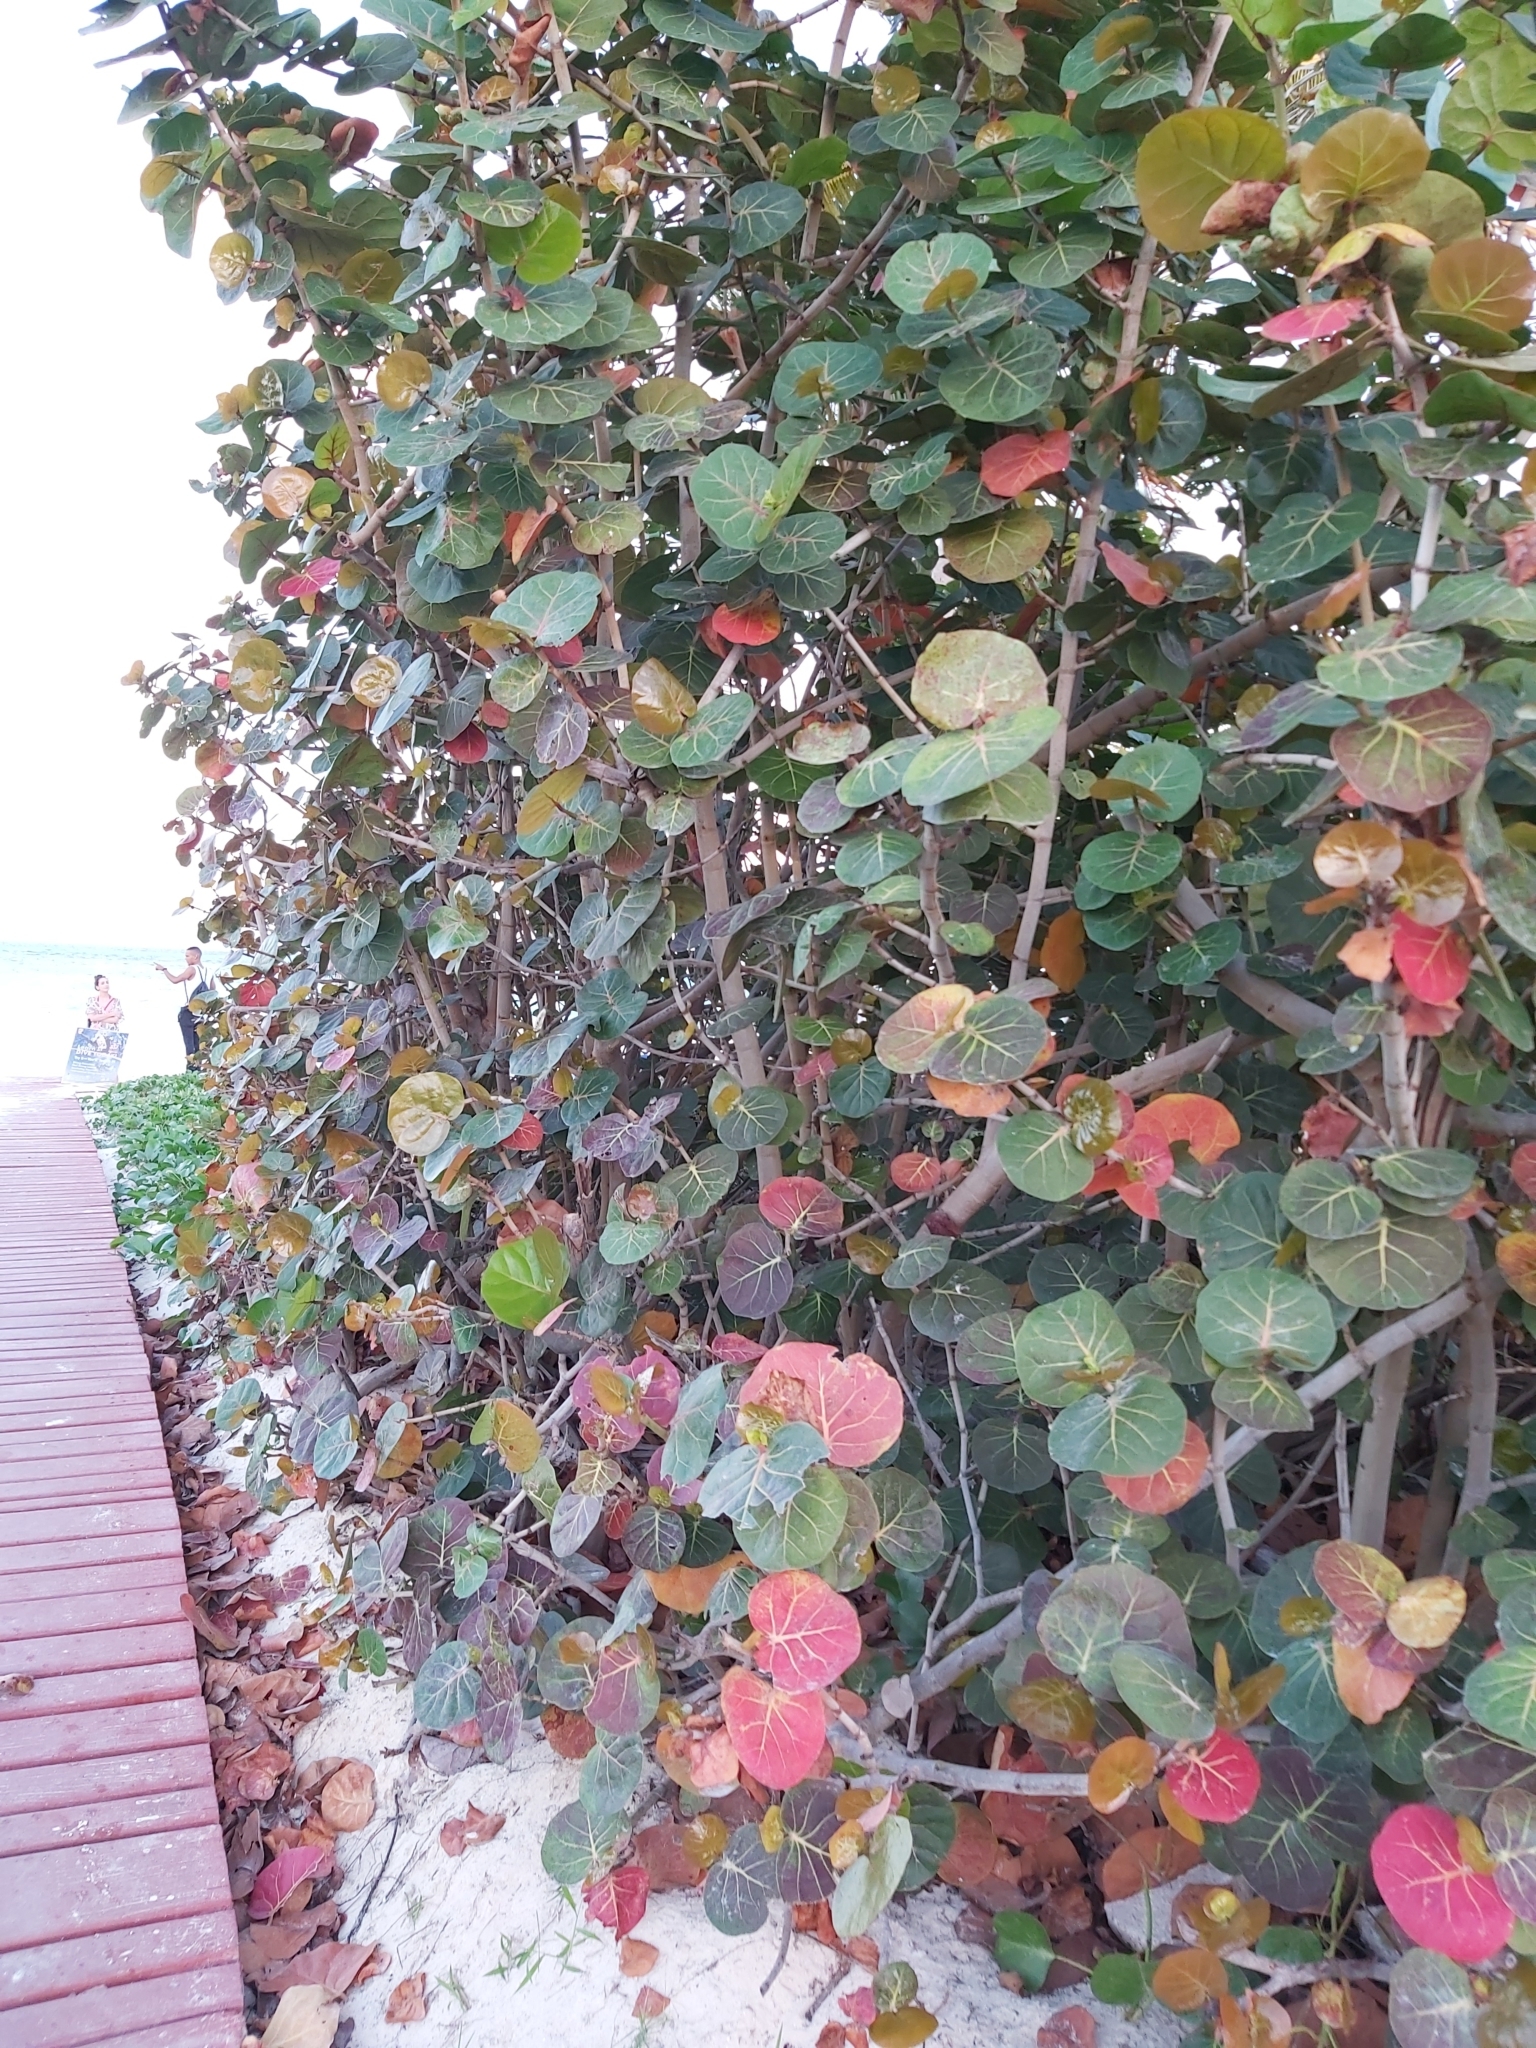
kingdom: Plantae
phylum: Tracheophyta
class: Magnoliopsida
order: Caryophyllales
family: Polygonaceae
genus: Coccoloba
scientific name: Coccoloba uvifera
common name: Seagrape
